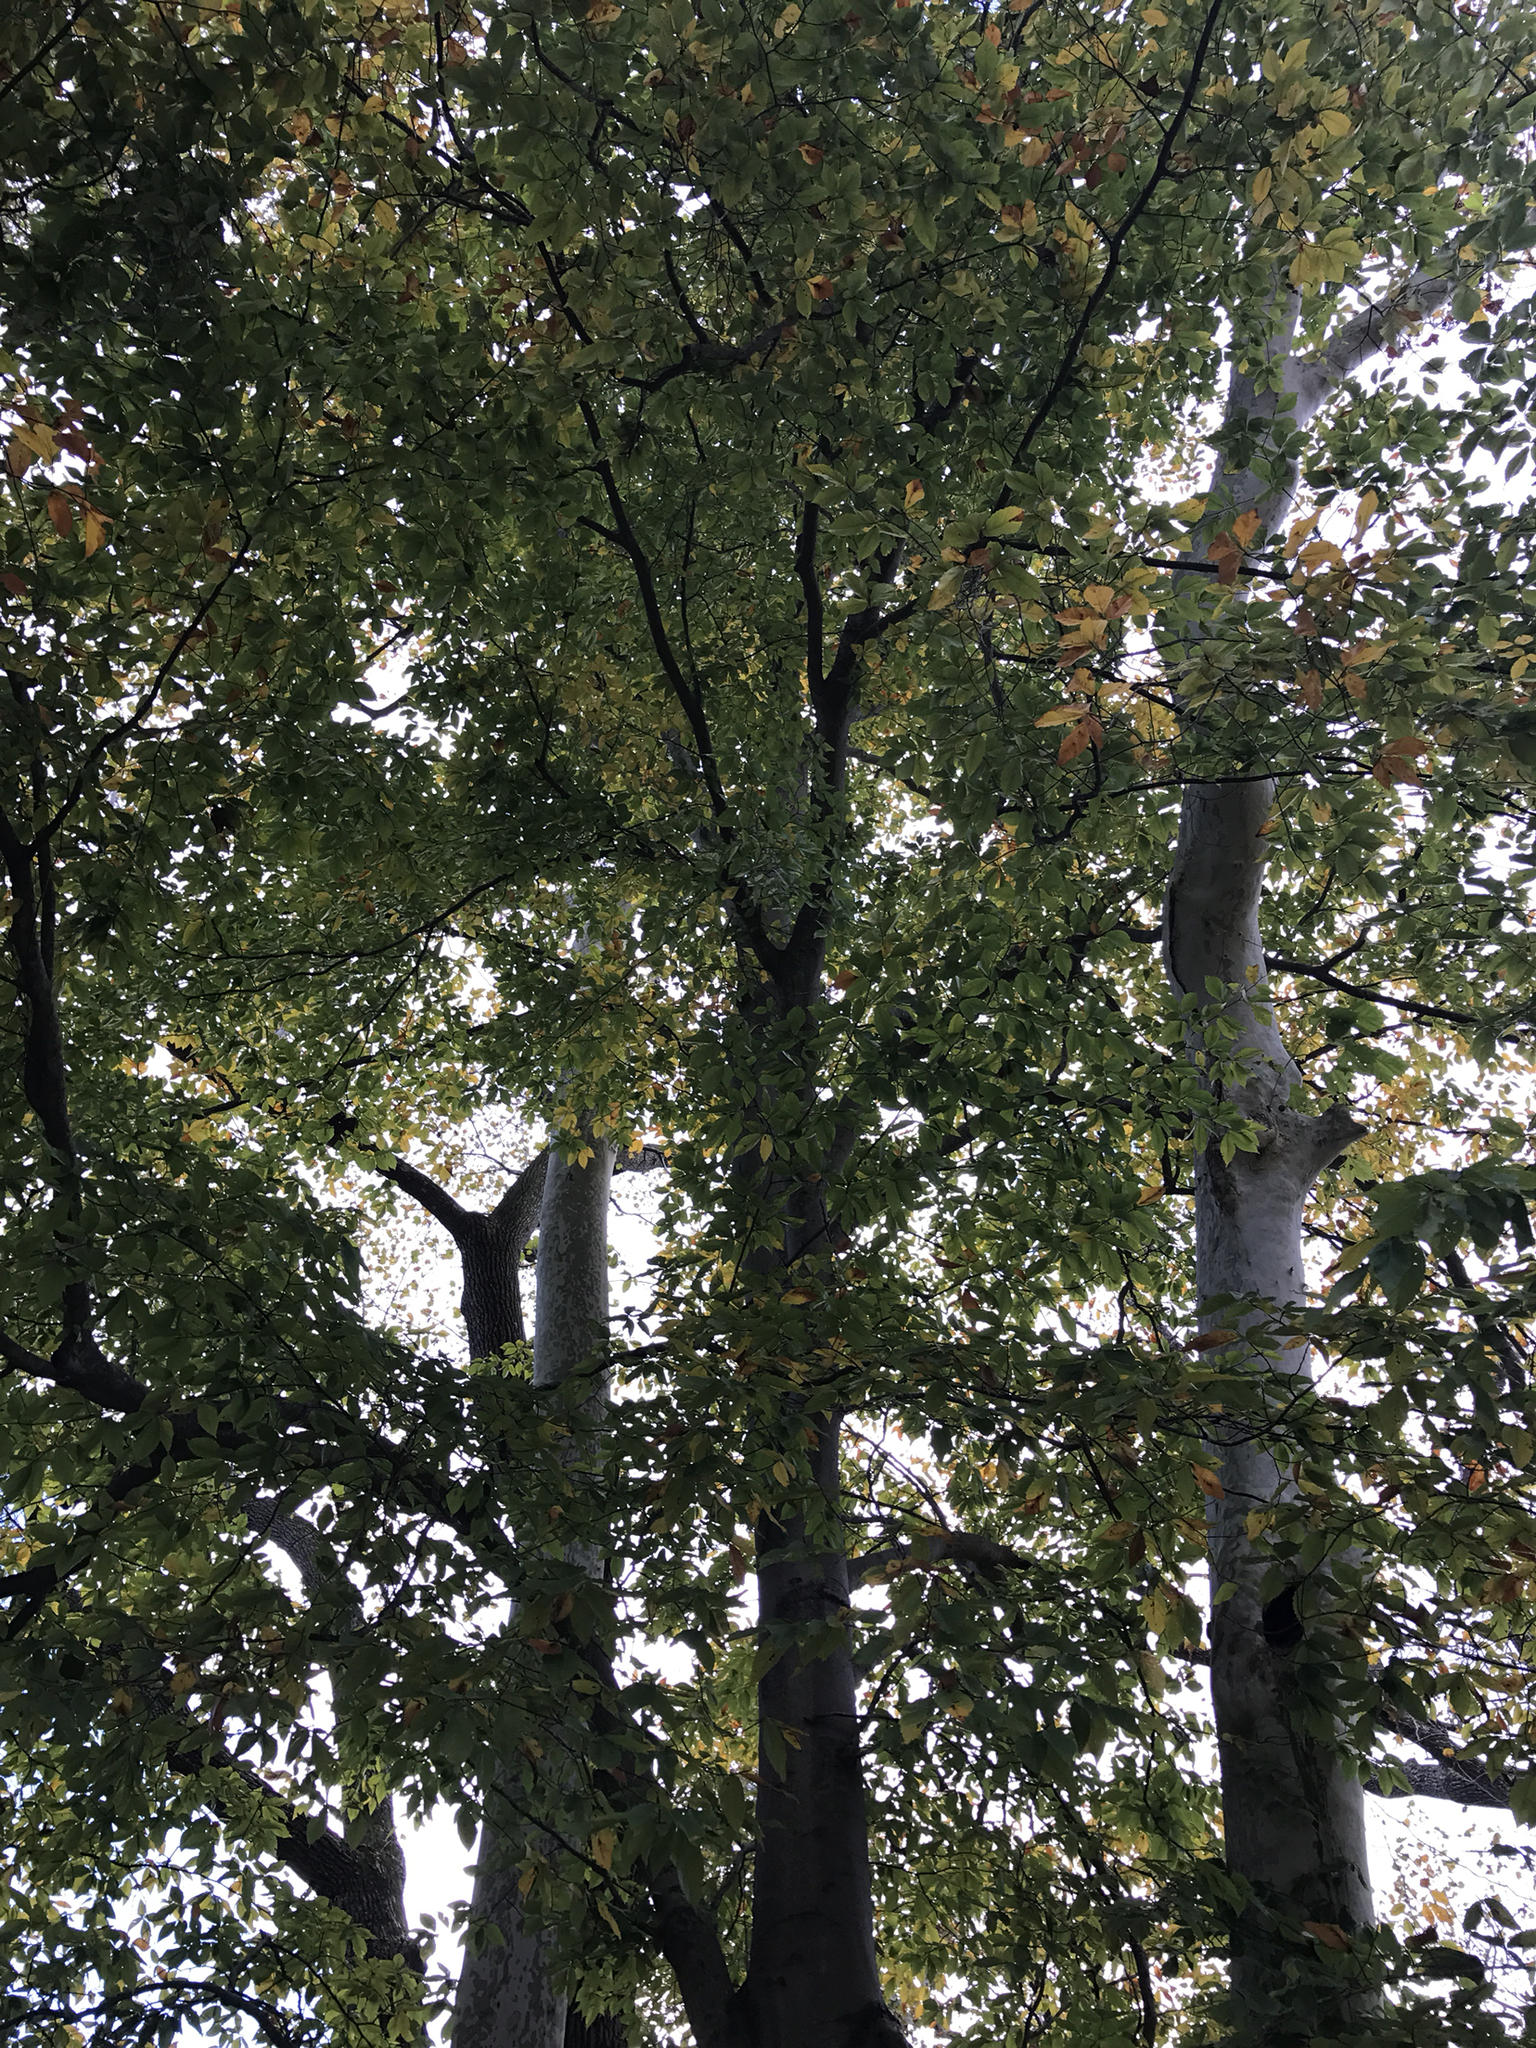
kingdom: Plantae
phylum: Tracheophyta
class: Magnoliopsida
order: Fagales
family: Fagaceae
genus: Fagus
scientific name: Fagus grandifolia
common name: American beech
